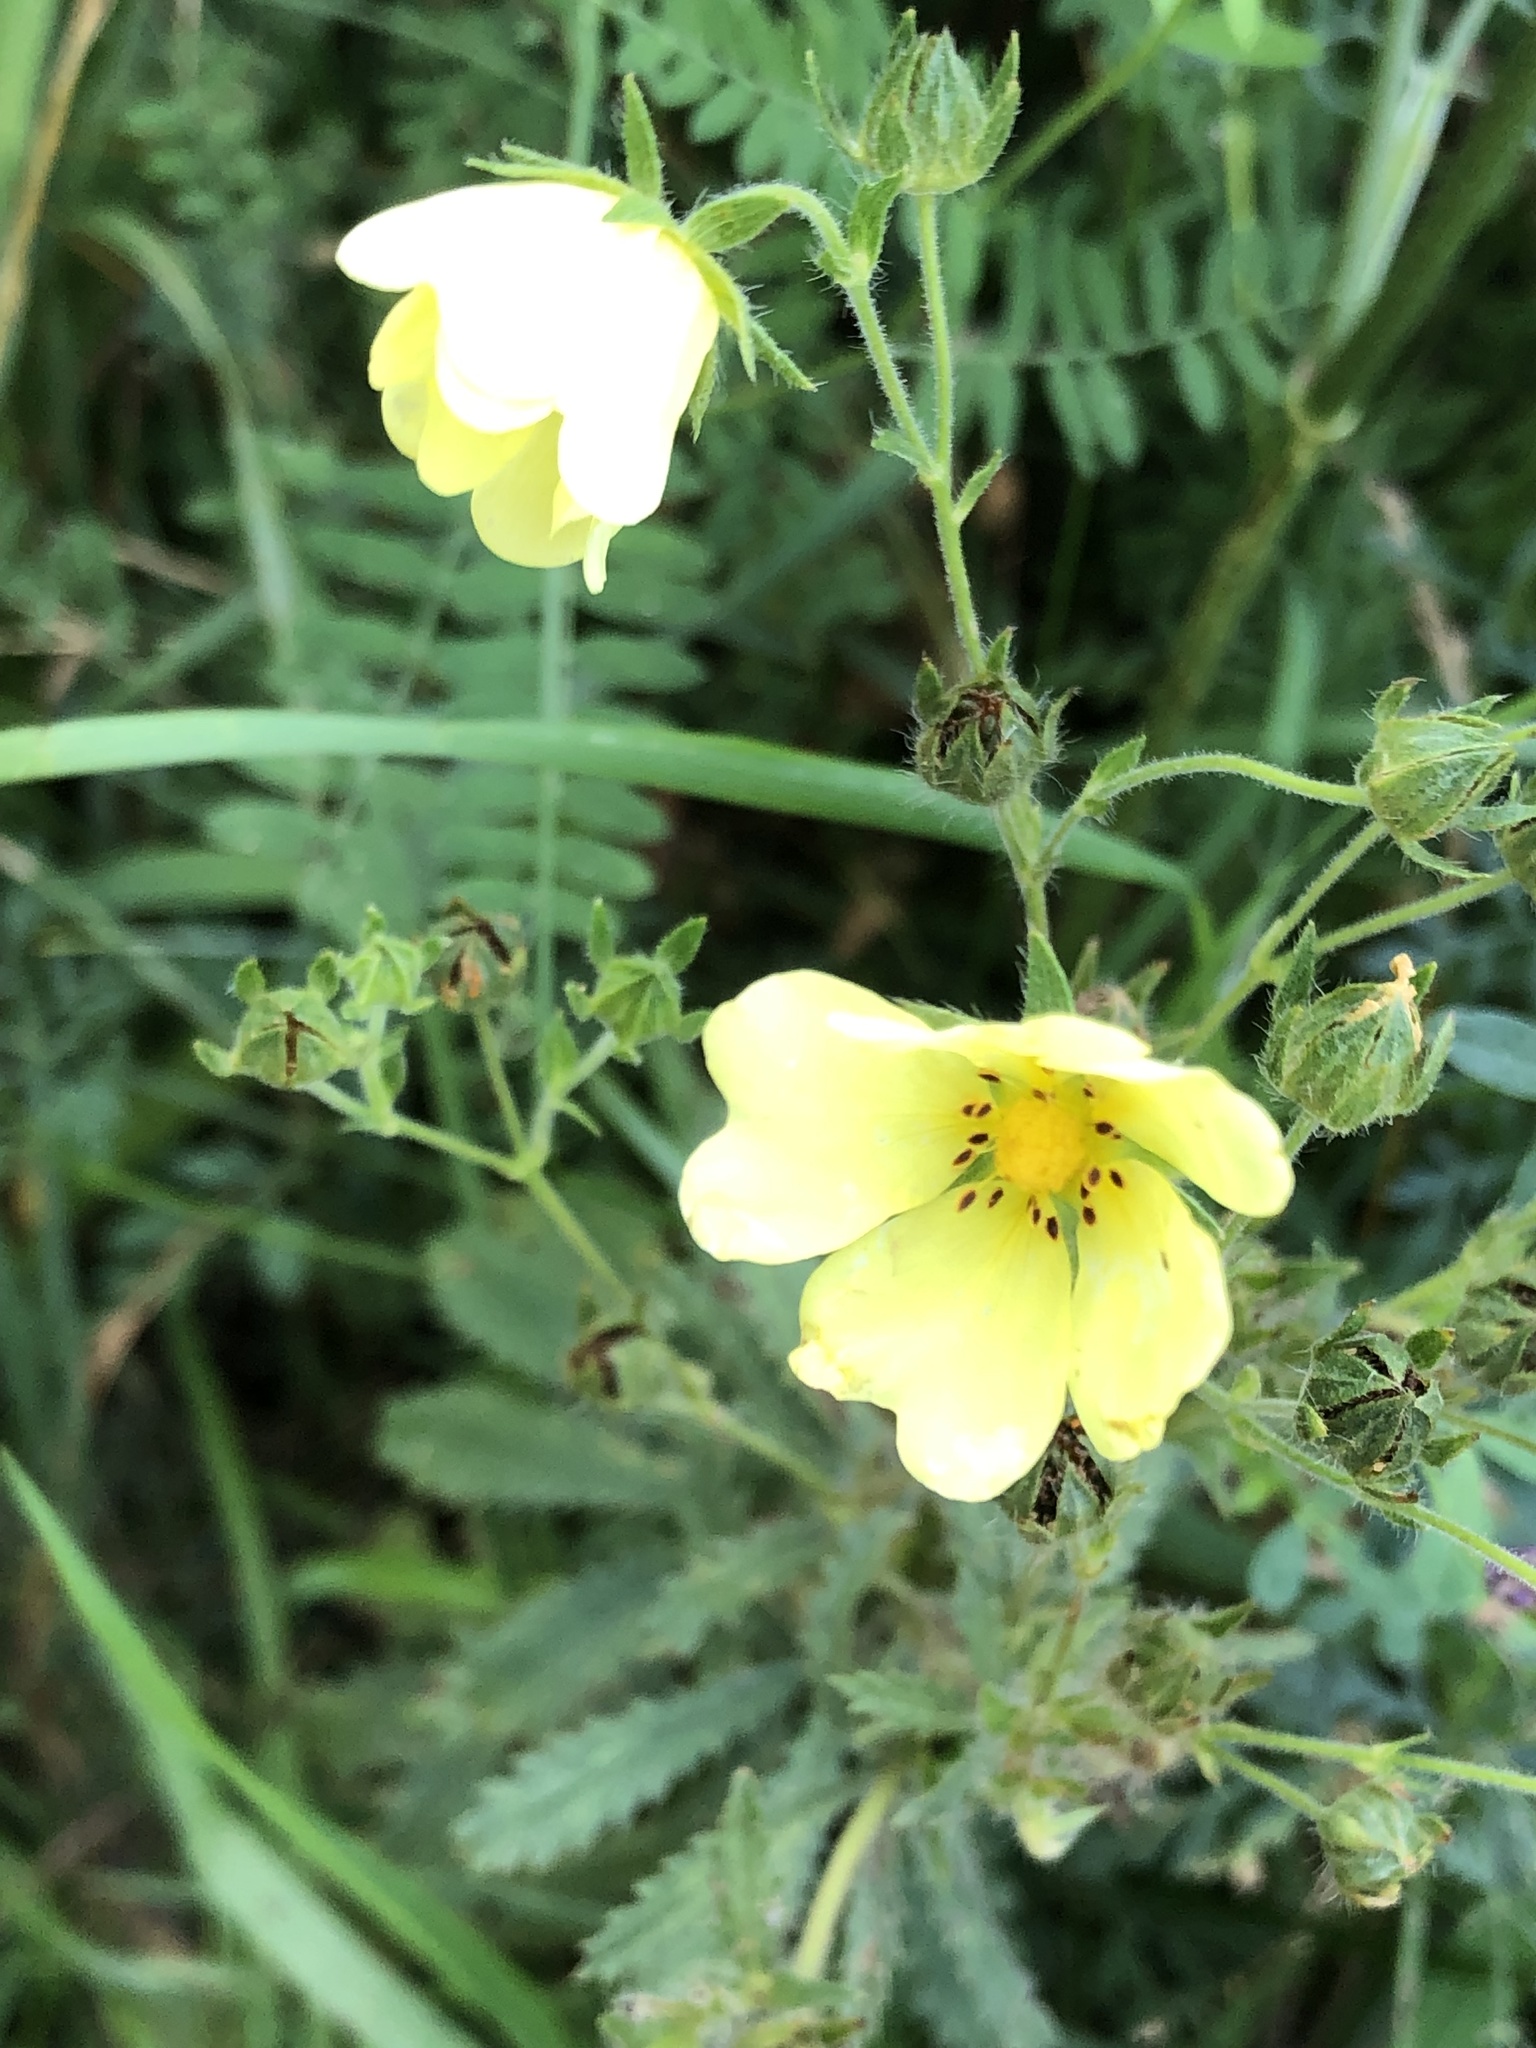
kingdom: Plantae
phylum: Tracheophyta
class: Magnoliopsida
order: Rosales
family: Rosaceae
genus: Potentilla
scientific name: Potentilla recta
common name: Sulphur cinquefoil
